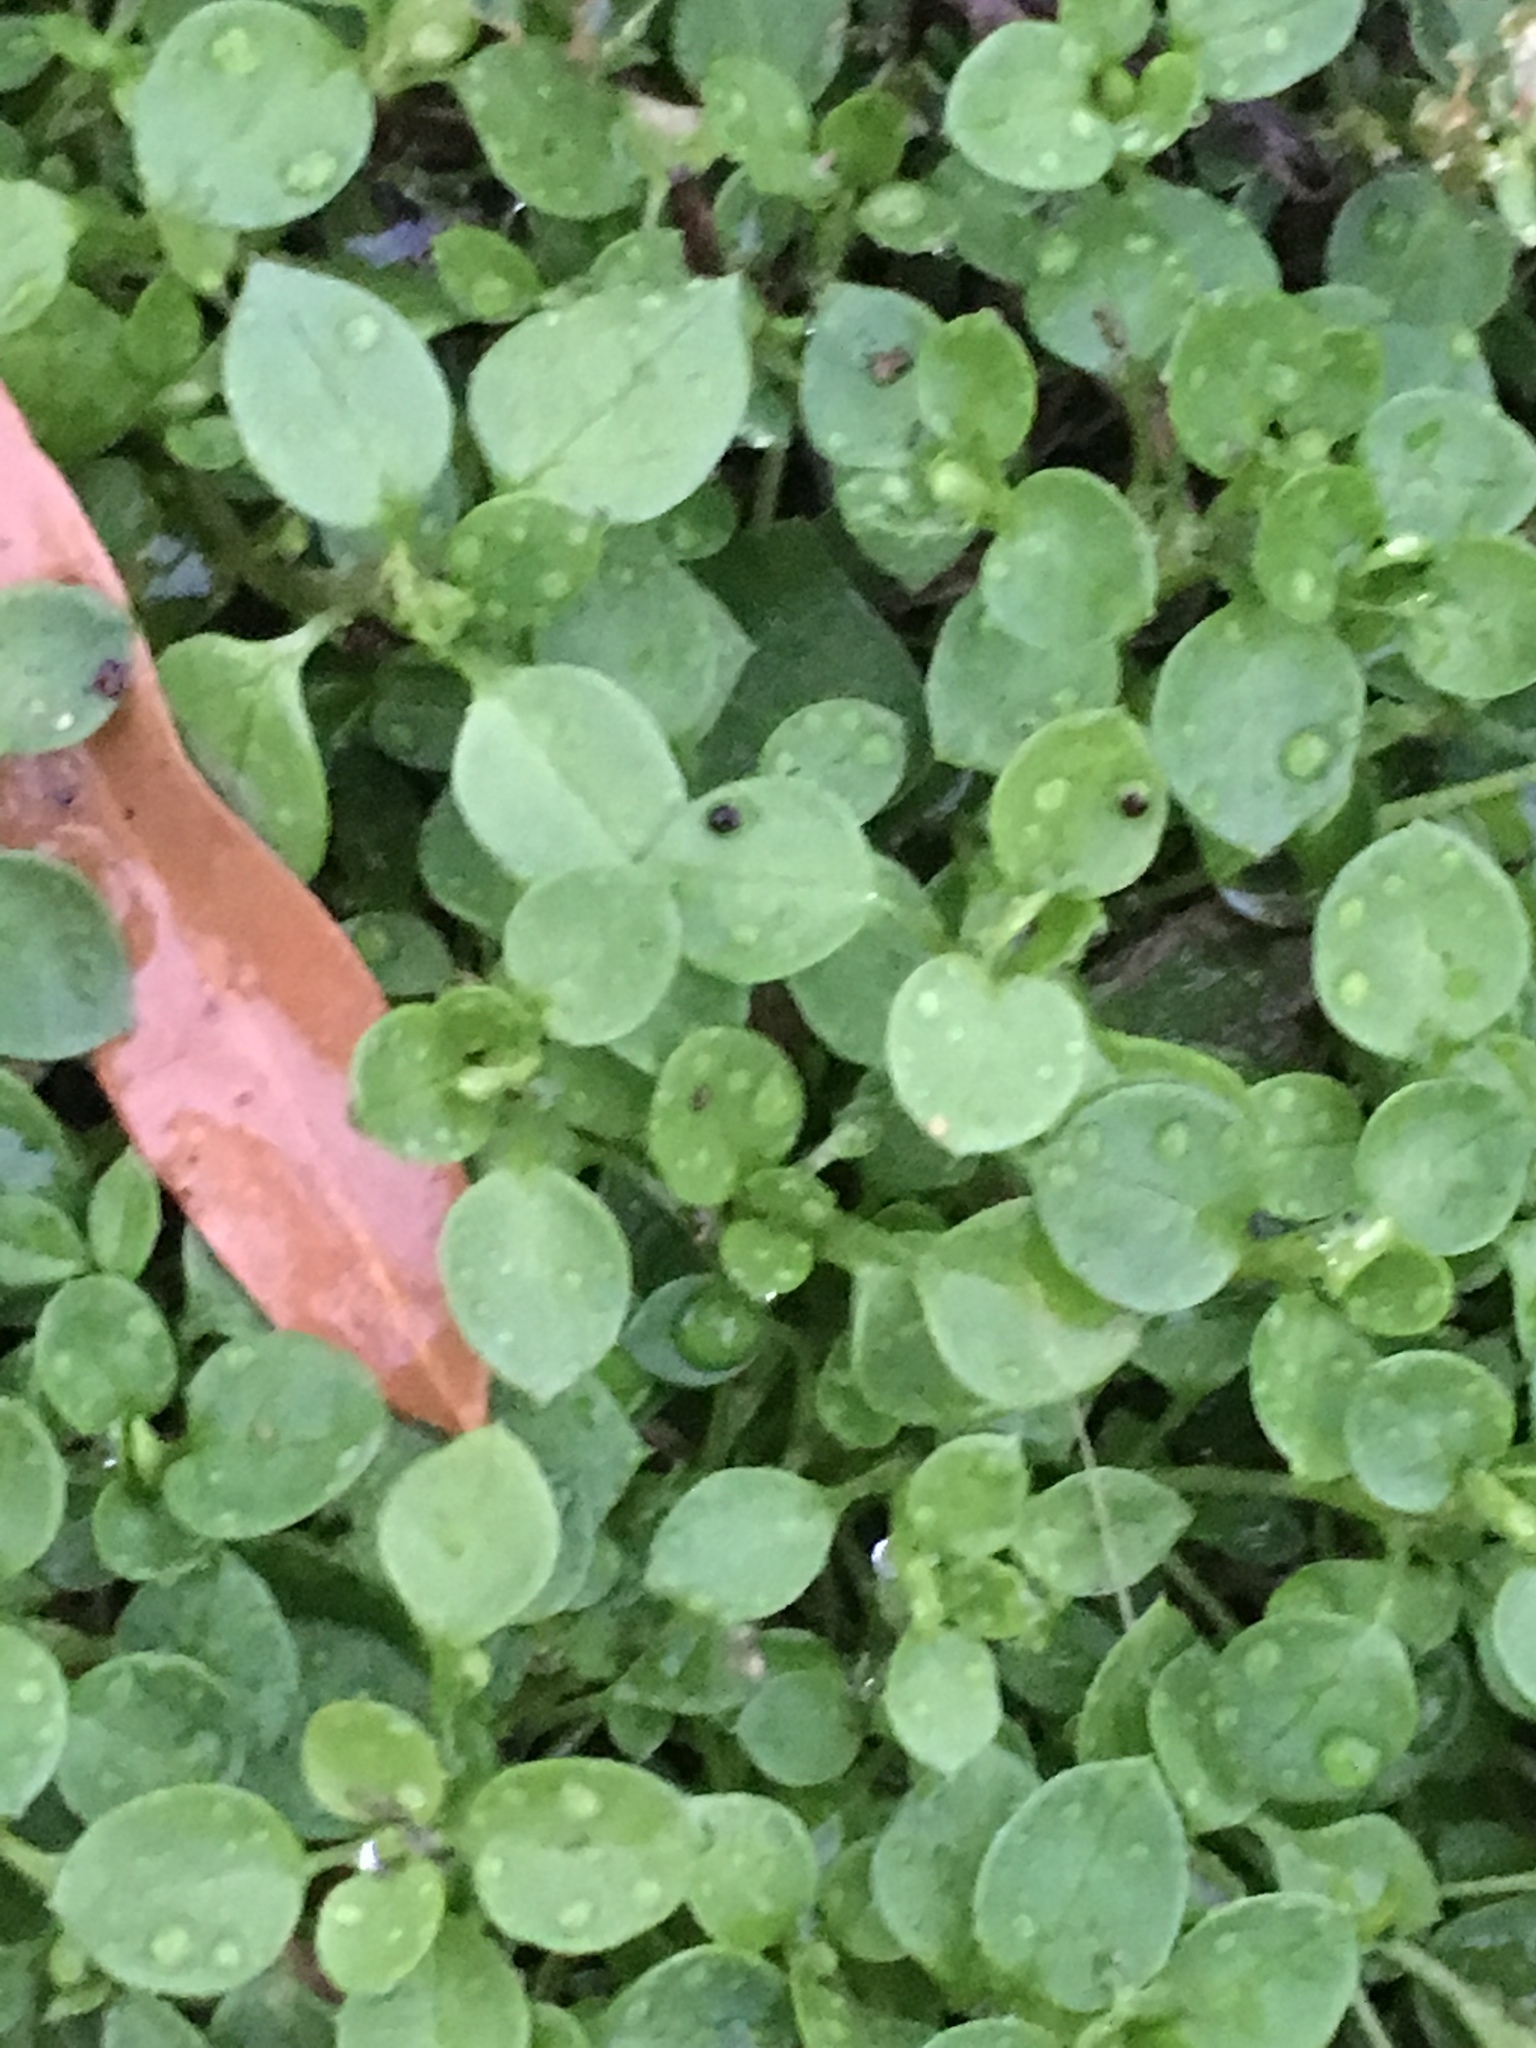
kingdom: Plantae
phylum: Tracheophyta
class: Magnoliopsida
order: Caryophyllales
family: Caryophyllaceae
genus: Stellaria
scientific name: Stellaria media
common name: Common chickweed
